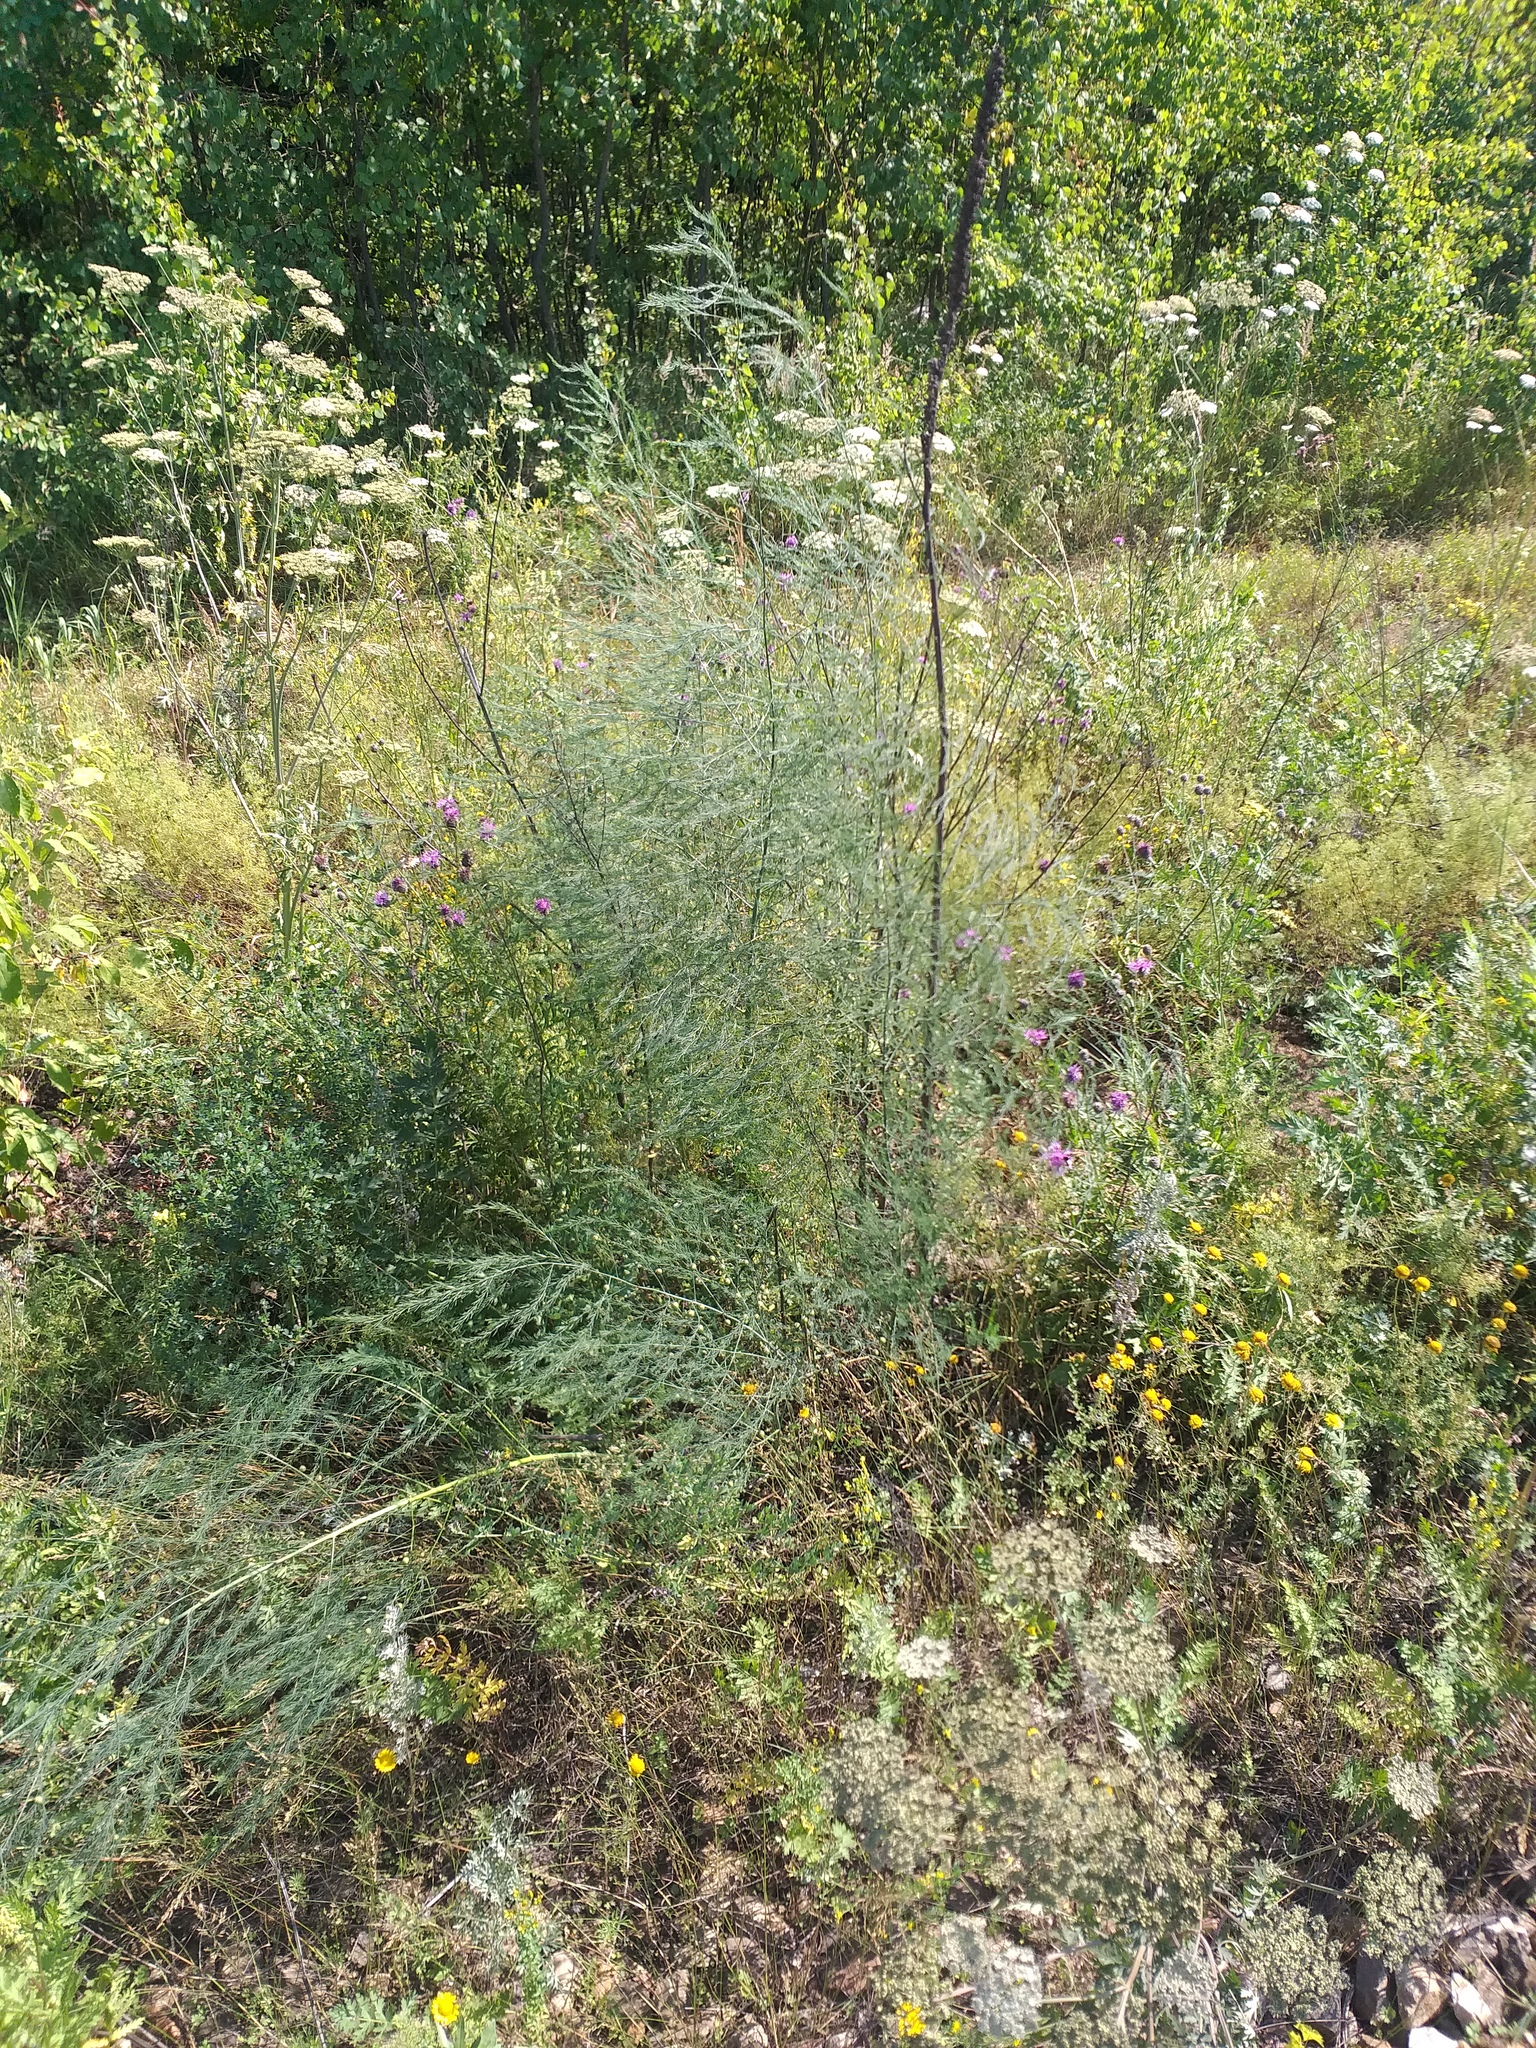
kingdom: Plantae
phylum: Tracheophyta
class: Liliopsida
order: Asparagales
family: Asparagaceae
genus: Asparagus
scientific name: Asparagus officinalis
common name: Garden asparagus
